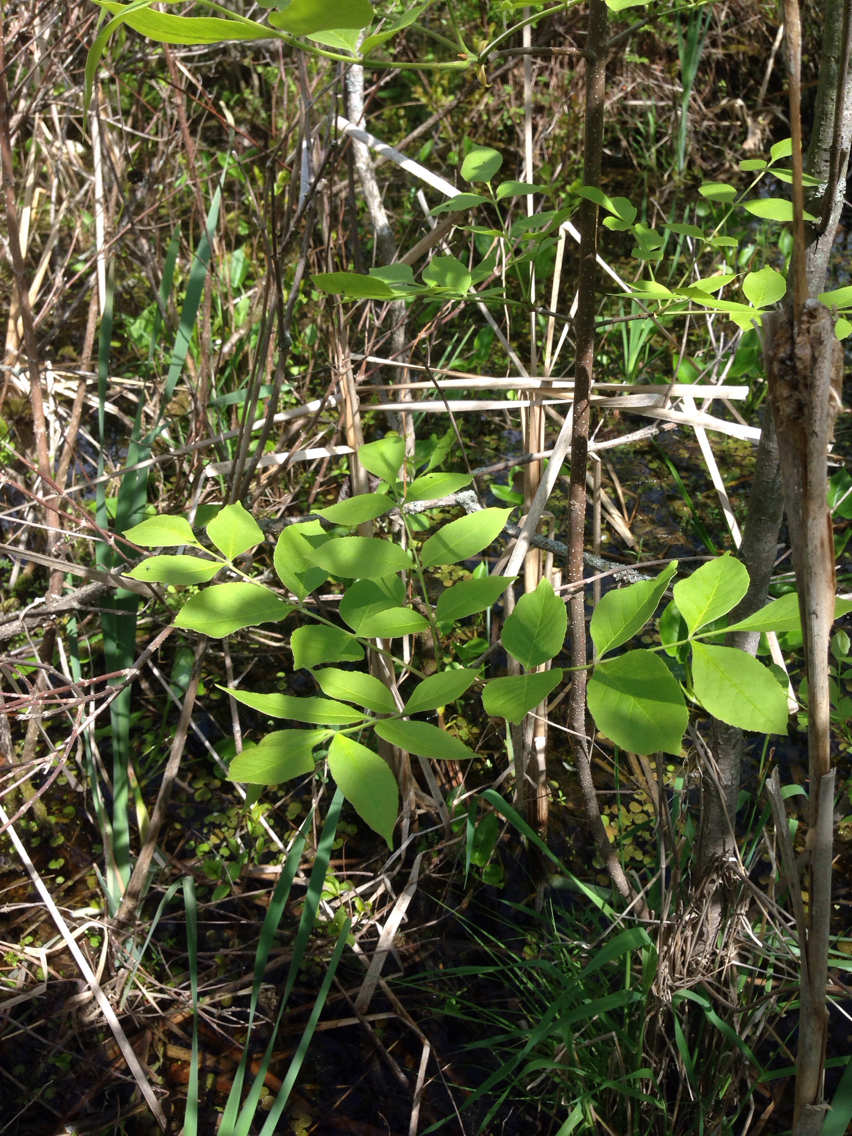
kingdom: Plantae
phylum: Tracheophyta
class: Magnoliopsida
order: Lamiales
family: Oleaceae
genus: Fraxinus
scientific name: Fraxinus pennsylvanica
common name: Green ash
